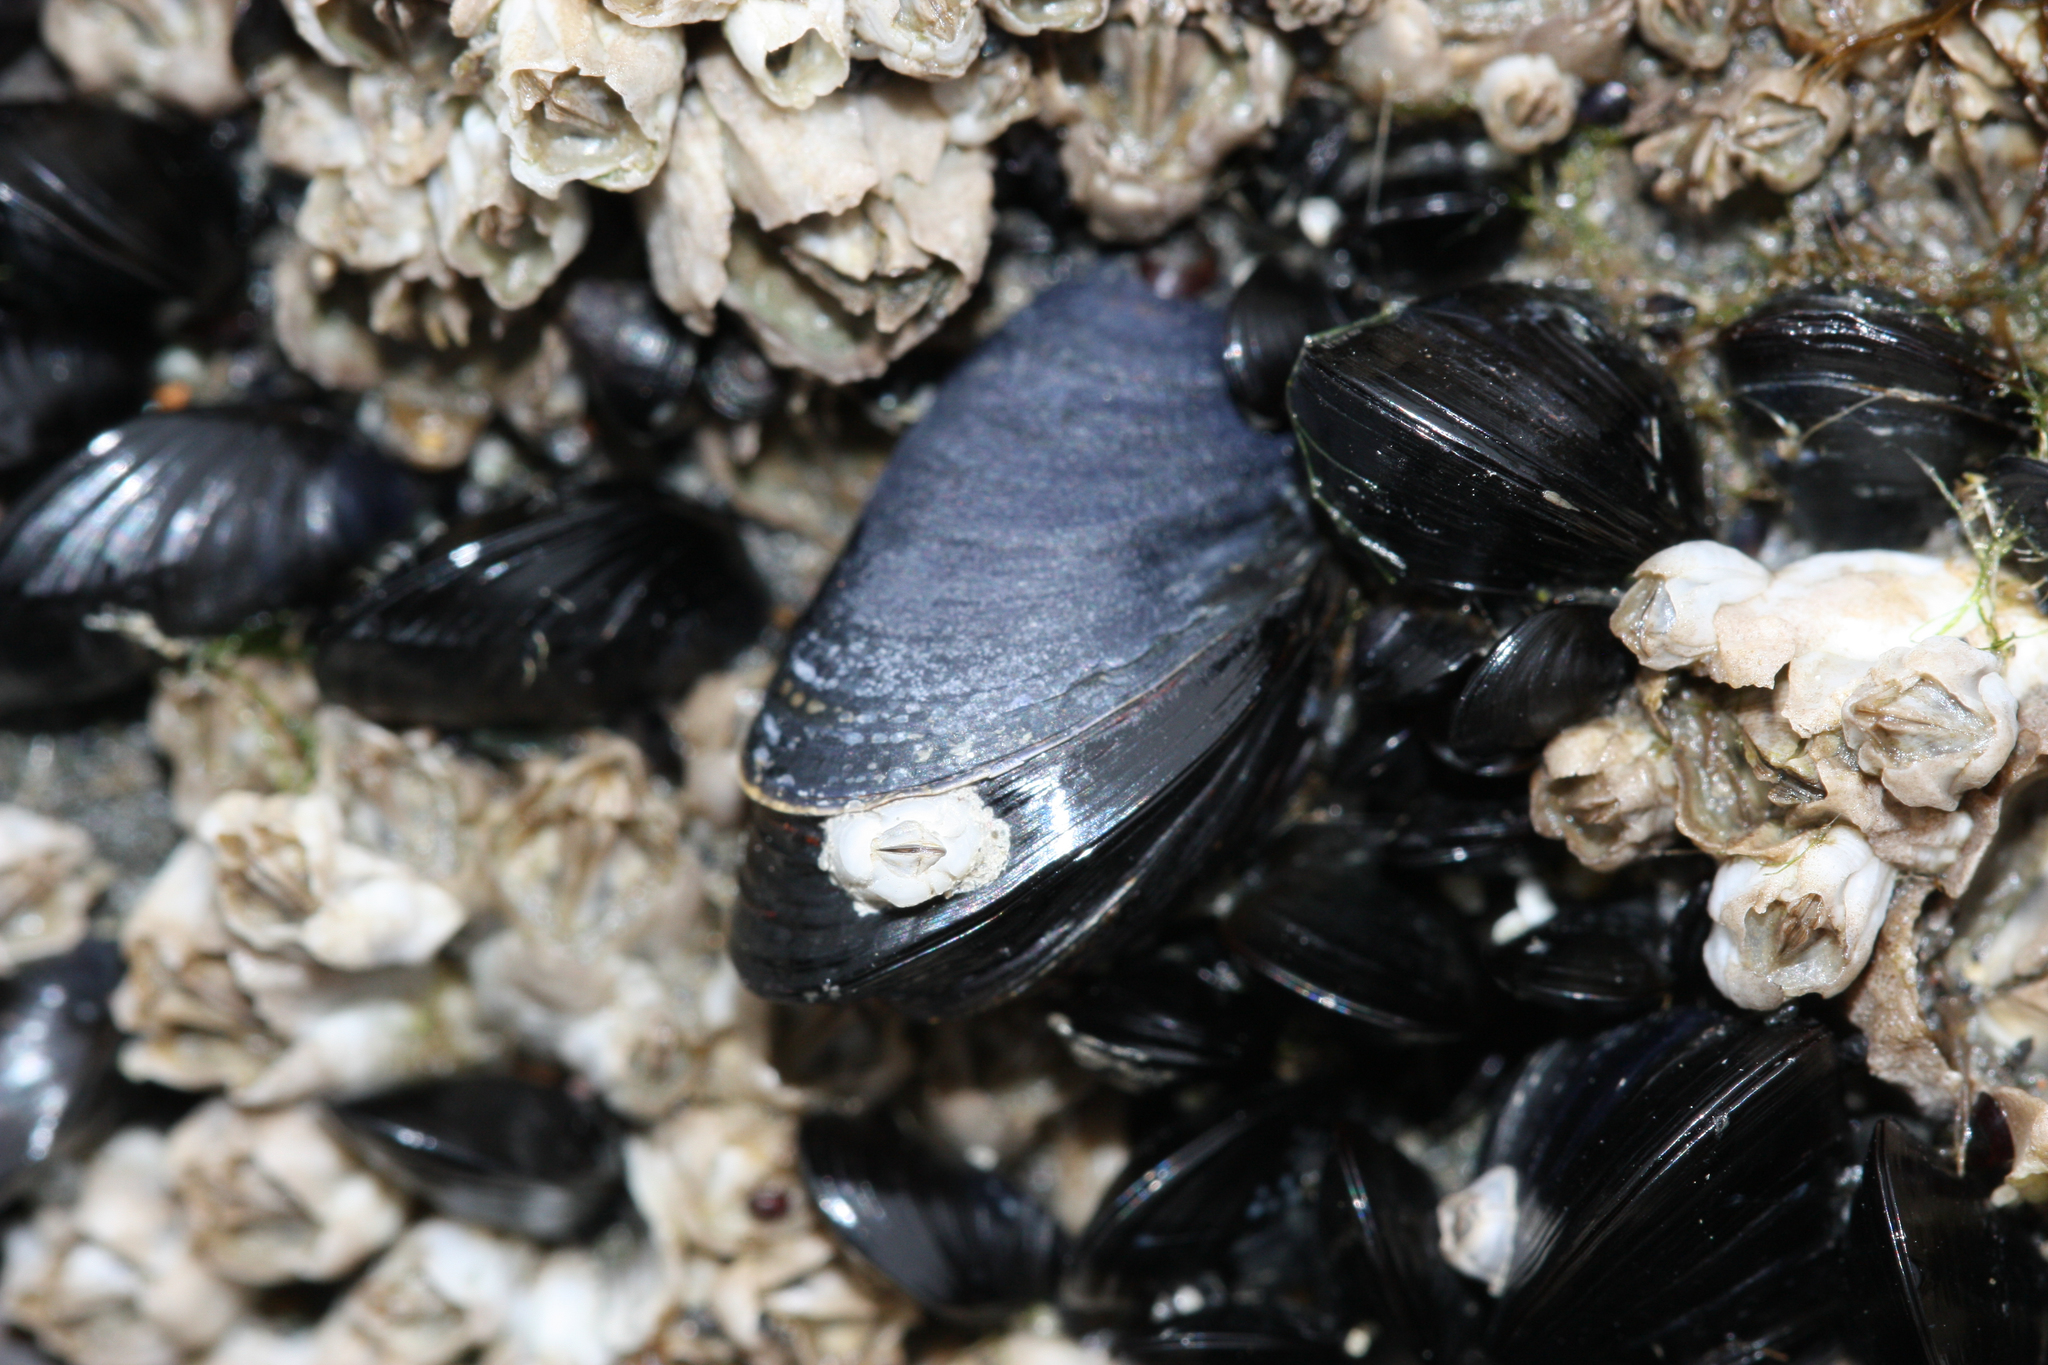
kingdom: Animalia
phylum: Mollusca
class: Bivalvia
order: Mytilida
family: Mytilidae
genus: Mytilus
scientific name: Mytilus trossulus
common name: Northern blue mussel
